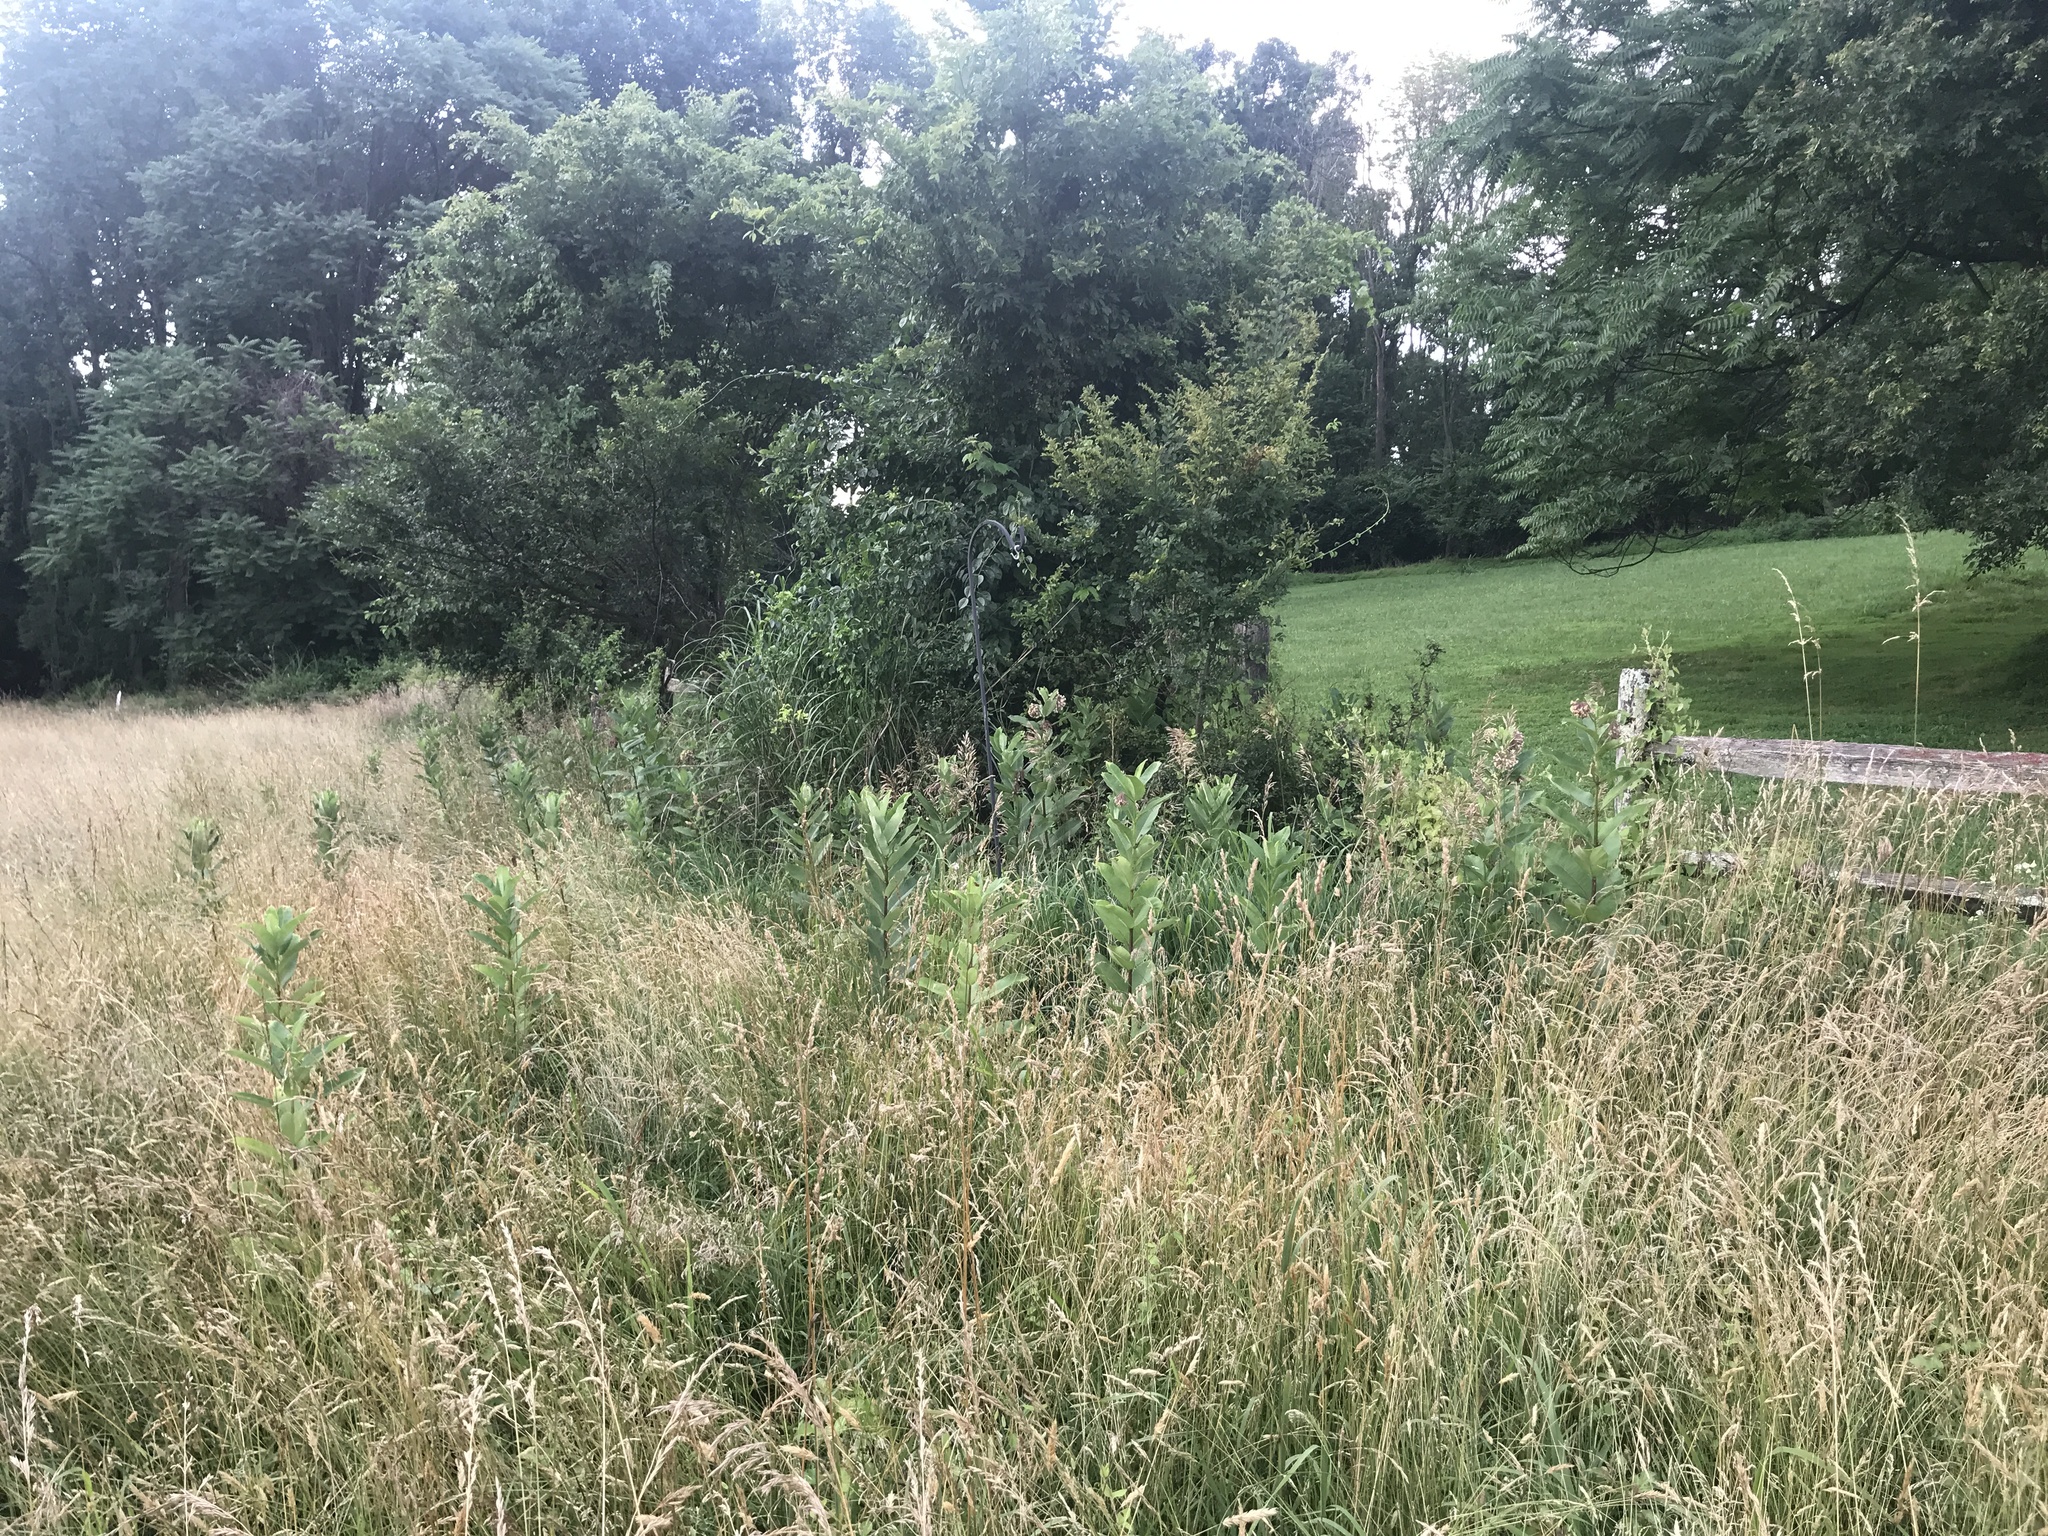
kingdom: Plantae
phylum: Tracheophyta
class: Magnoliopsida
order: Gentianales
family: Apocynaceae
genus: Asclepias
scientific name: Asclepias syriaca
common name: Common milkweed
